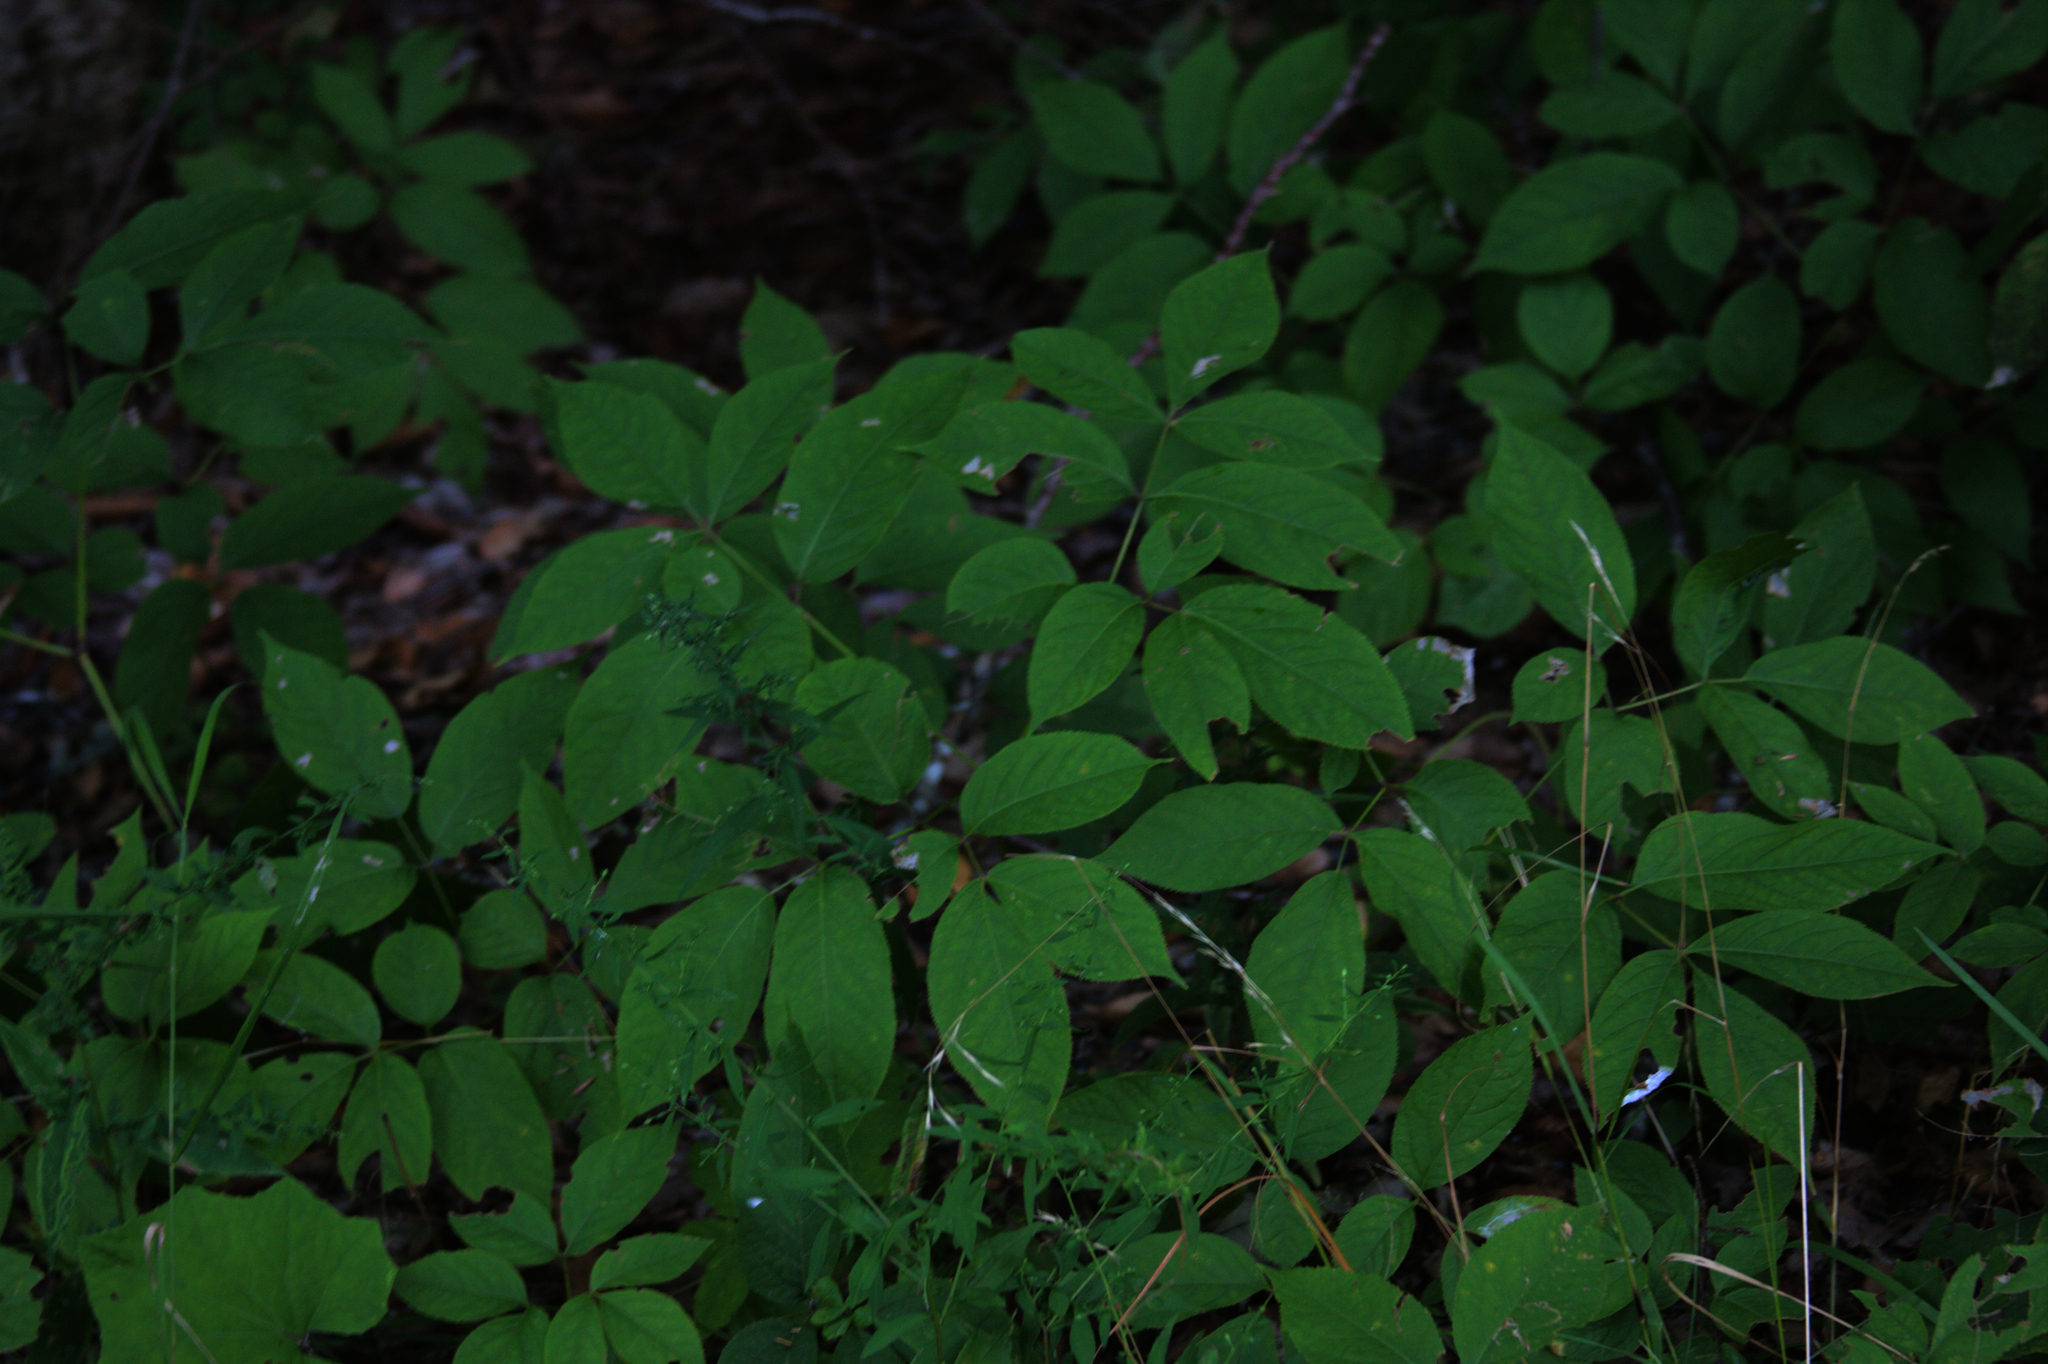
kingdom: Plantae
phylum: Tracheophyta
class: Magnoliopsida
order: Apiales
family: Araliaceae
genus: Aralia
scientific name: Aralia nudicaulis
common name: Wild sarsaparilla
